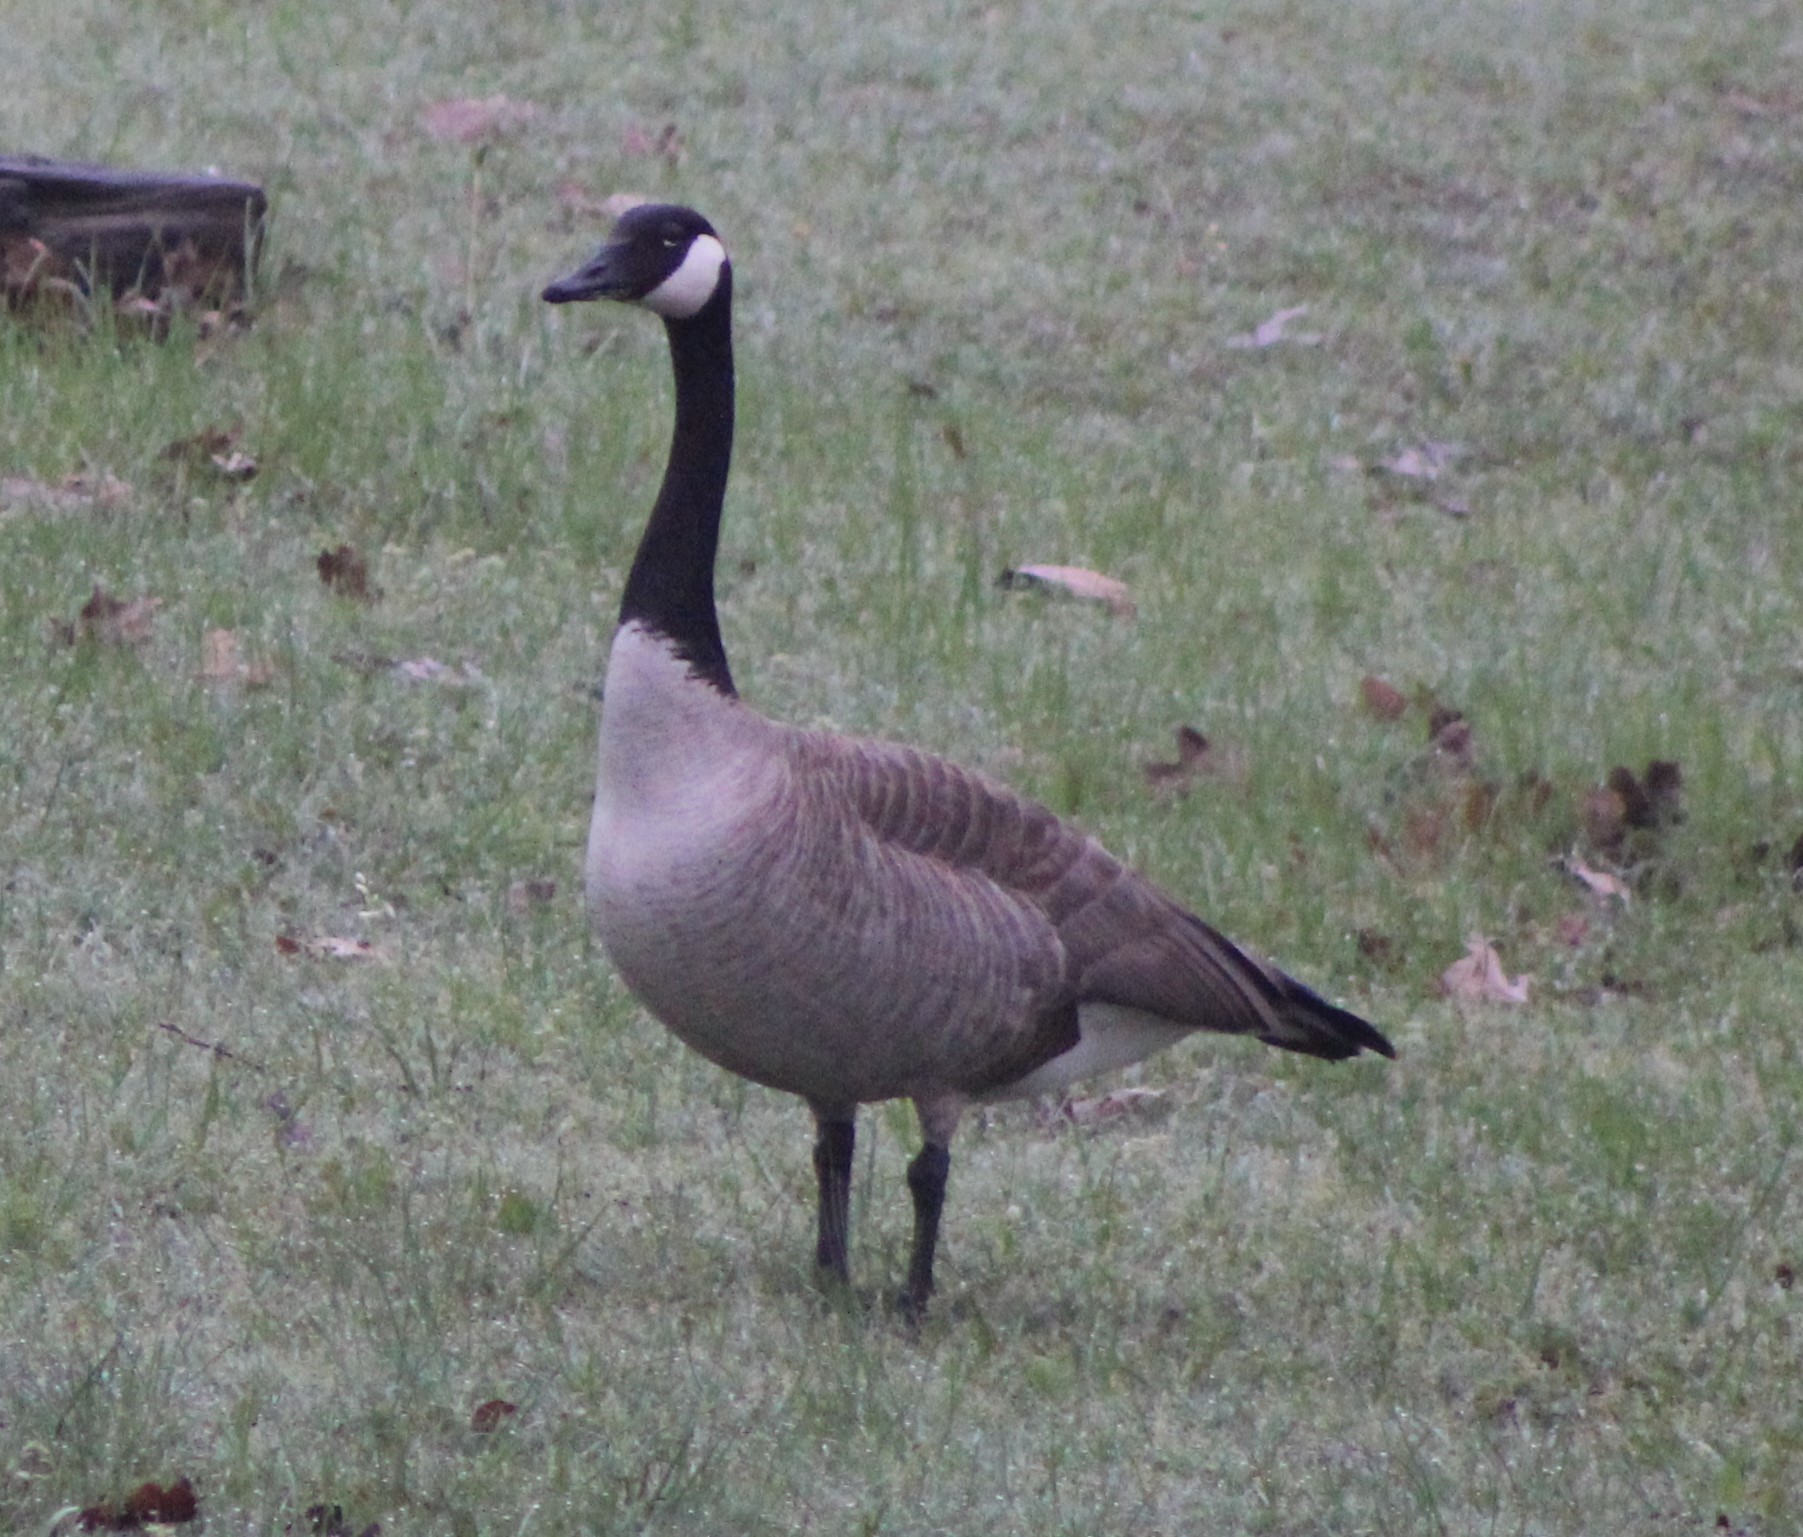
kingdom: Animalia
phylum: Chordata
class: Aves
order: Anseriformes
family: Anatidae
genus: Branta
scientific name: Branta canadensis
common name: Canada goose
